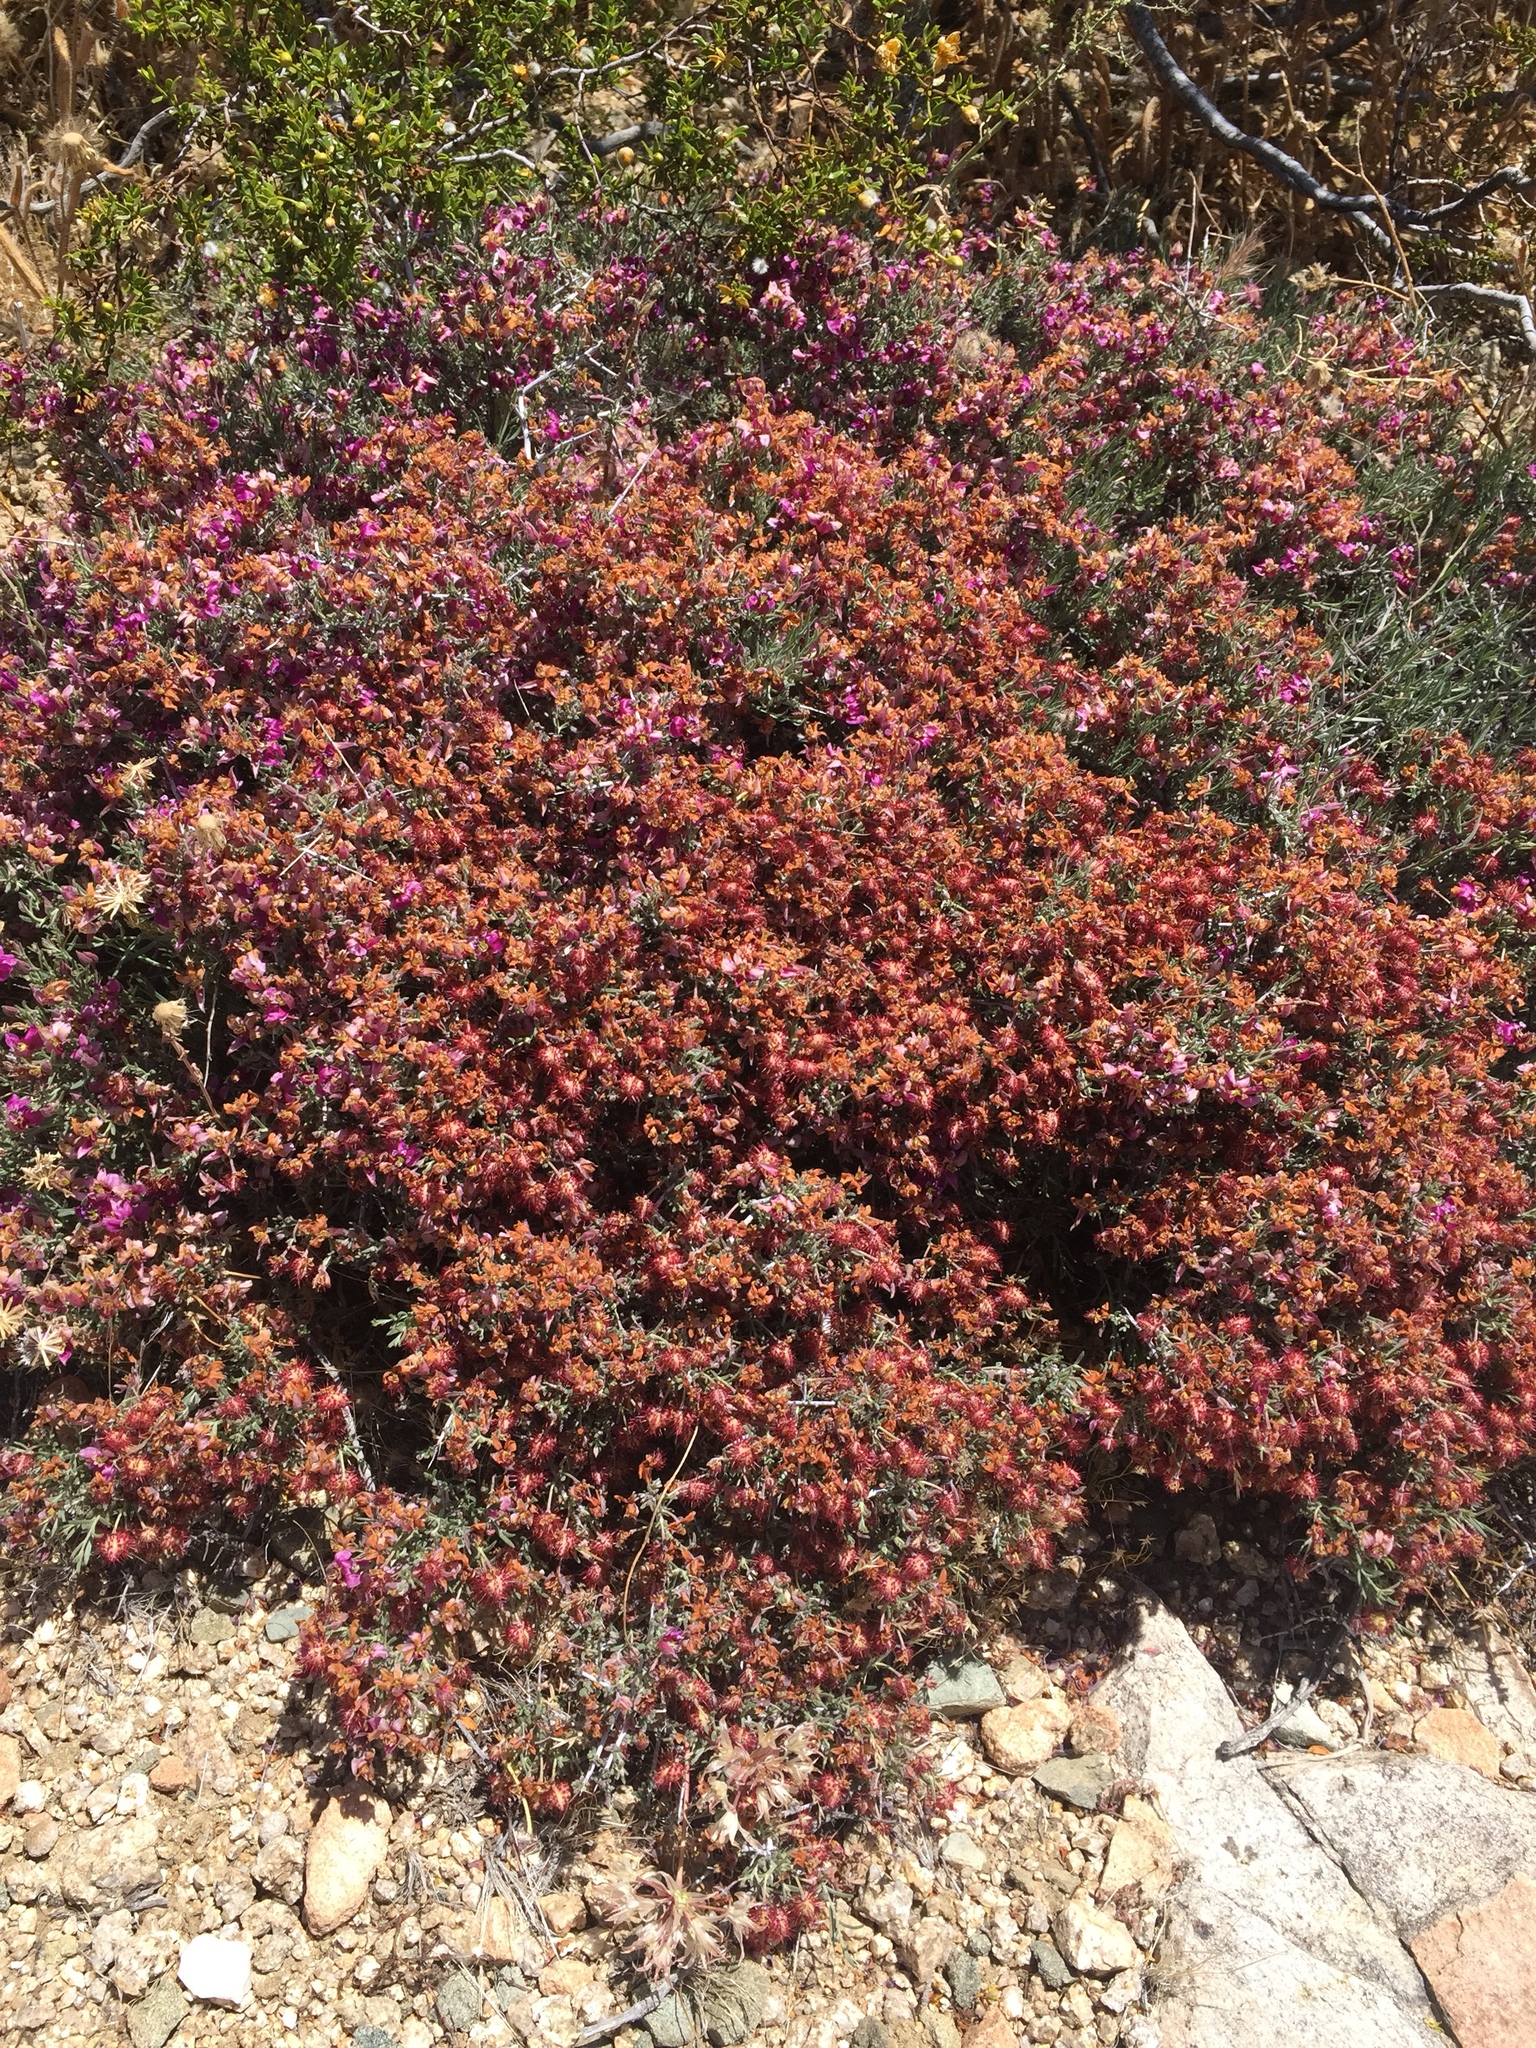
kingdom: Plantae
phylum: Tracheophyta
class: Magnoliopsida
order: Zygophyllales
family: Krameriaceae
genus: Krameria
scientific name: Krameria erecta
